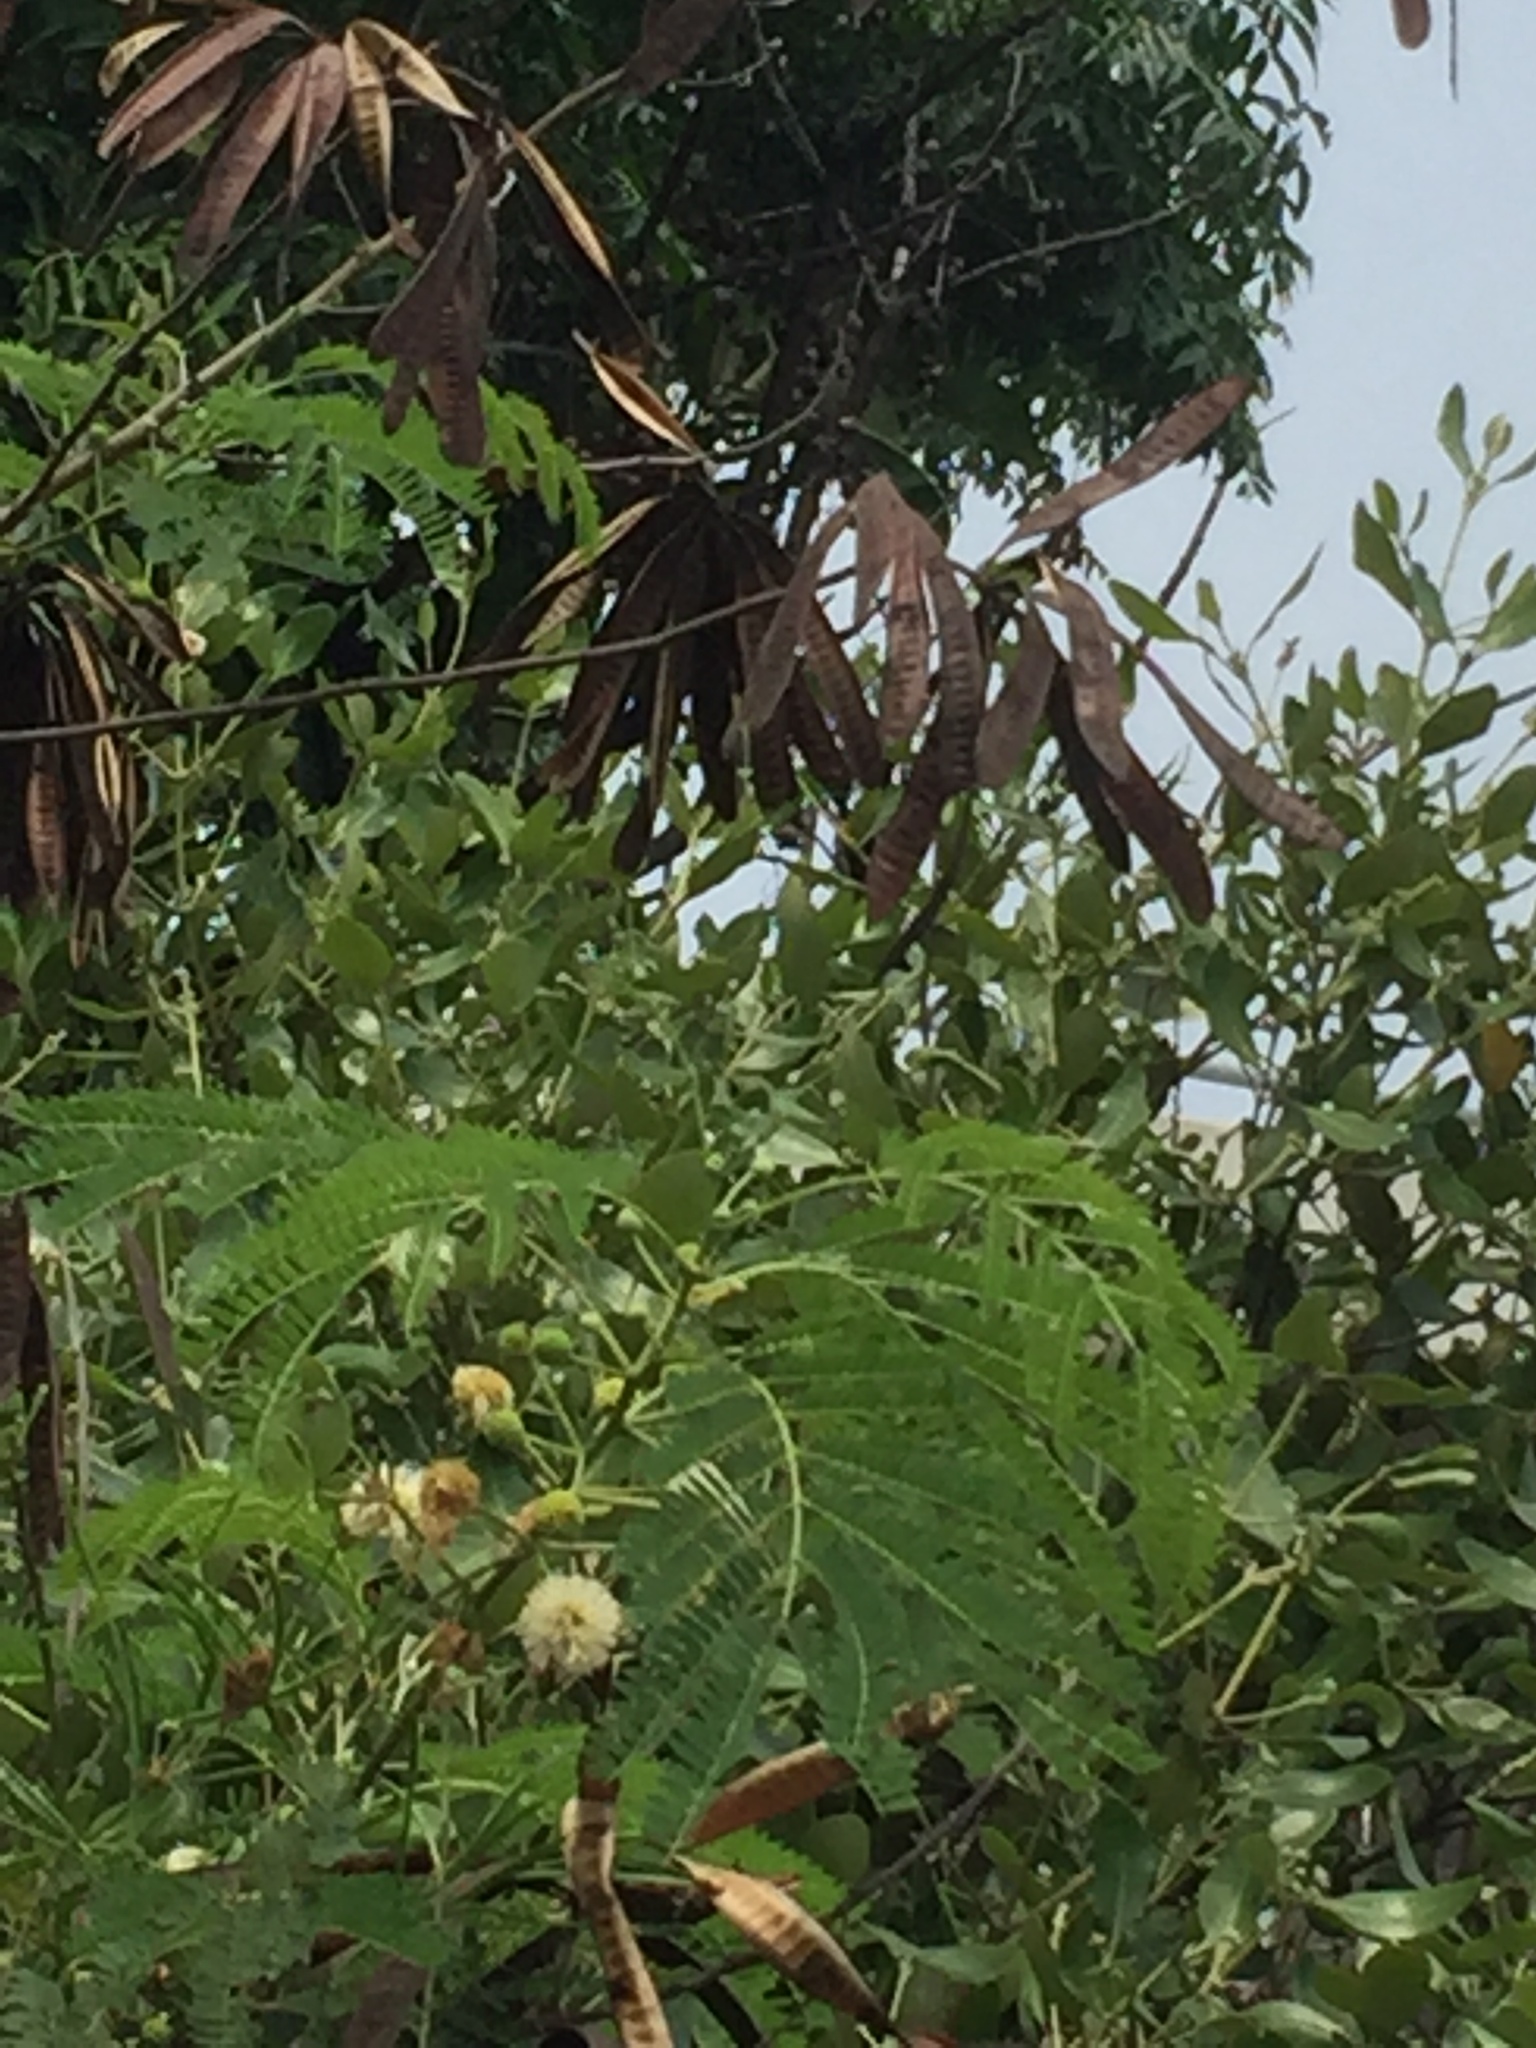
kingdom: Plantae
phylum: Tracheophyta
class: Magnoliopsida
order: Fabales
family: Fabaceae
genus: Leucaena
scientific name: Leucaena leucocephala
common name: White leadtree
